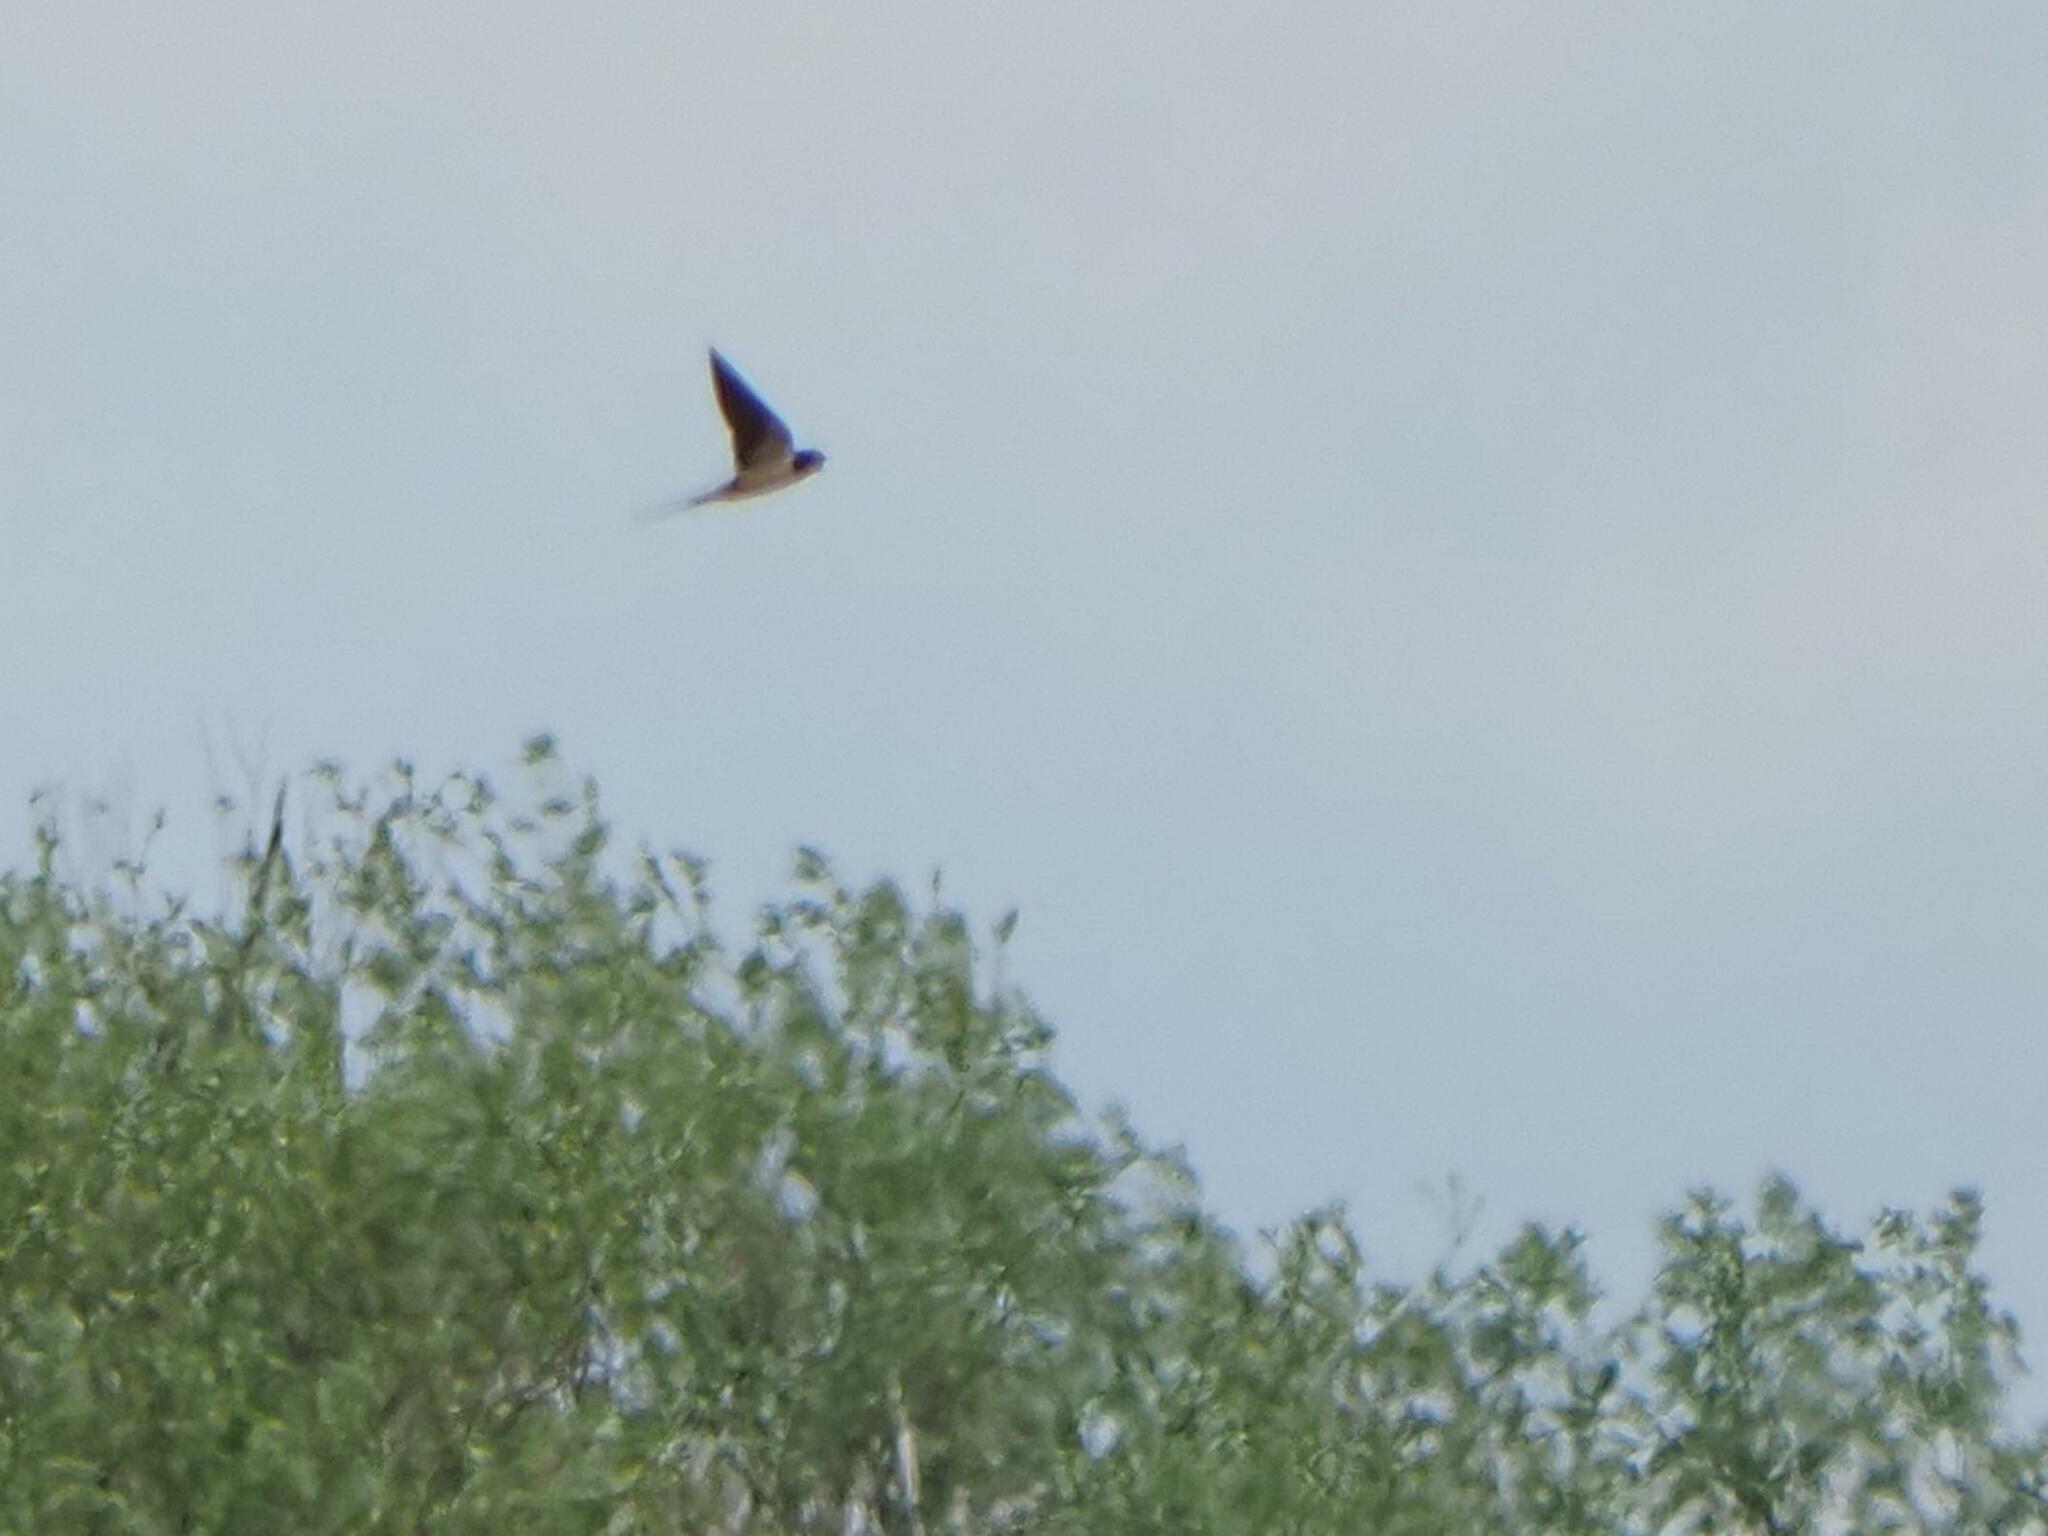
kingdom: Animalia
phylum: Chordata
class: Aves
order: Passeriformes
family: Hirundinidae
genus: Hirundo
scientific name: Hirundo rustica
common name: Barn swallow
